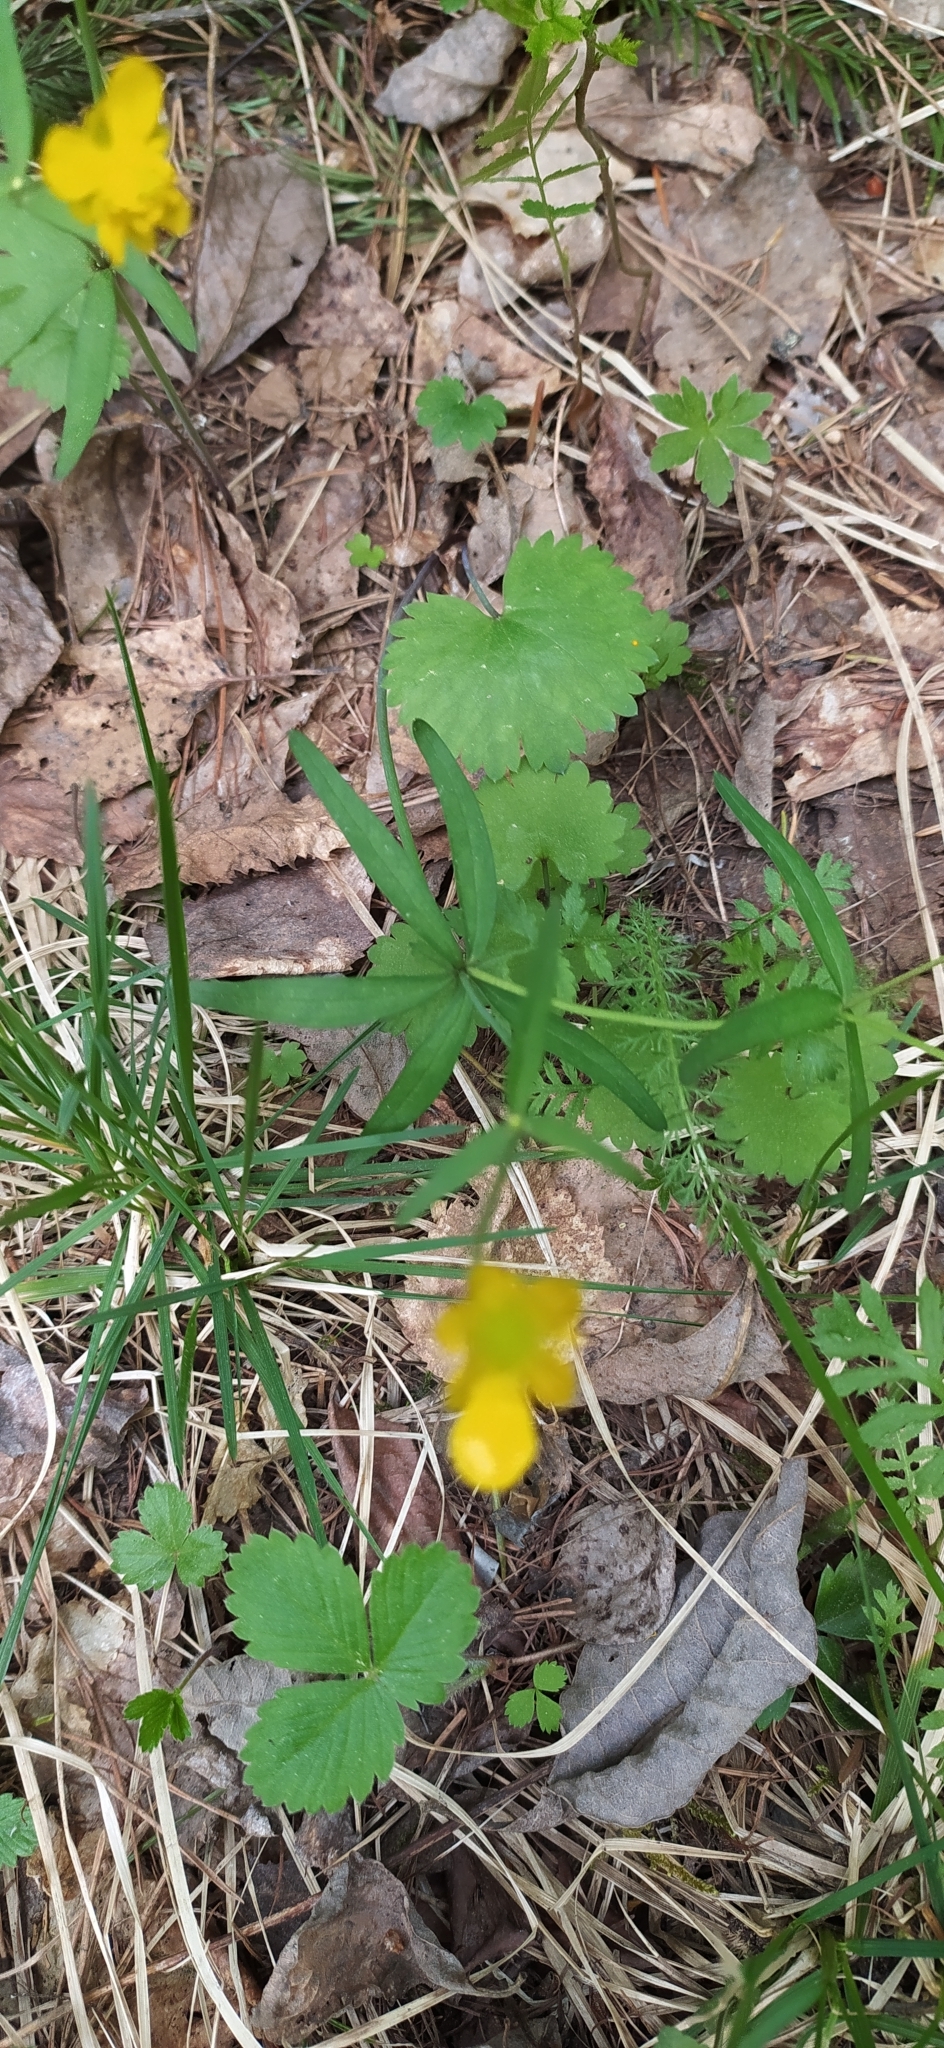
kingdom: Plantae
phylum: Tracheophyta
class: Magnoliopsida
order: Ranunculales
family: Ranunculaceae
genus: Ranunculus
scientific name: Ranunculus monophyllus
